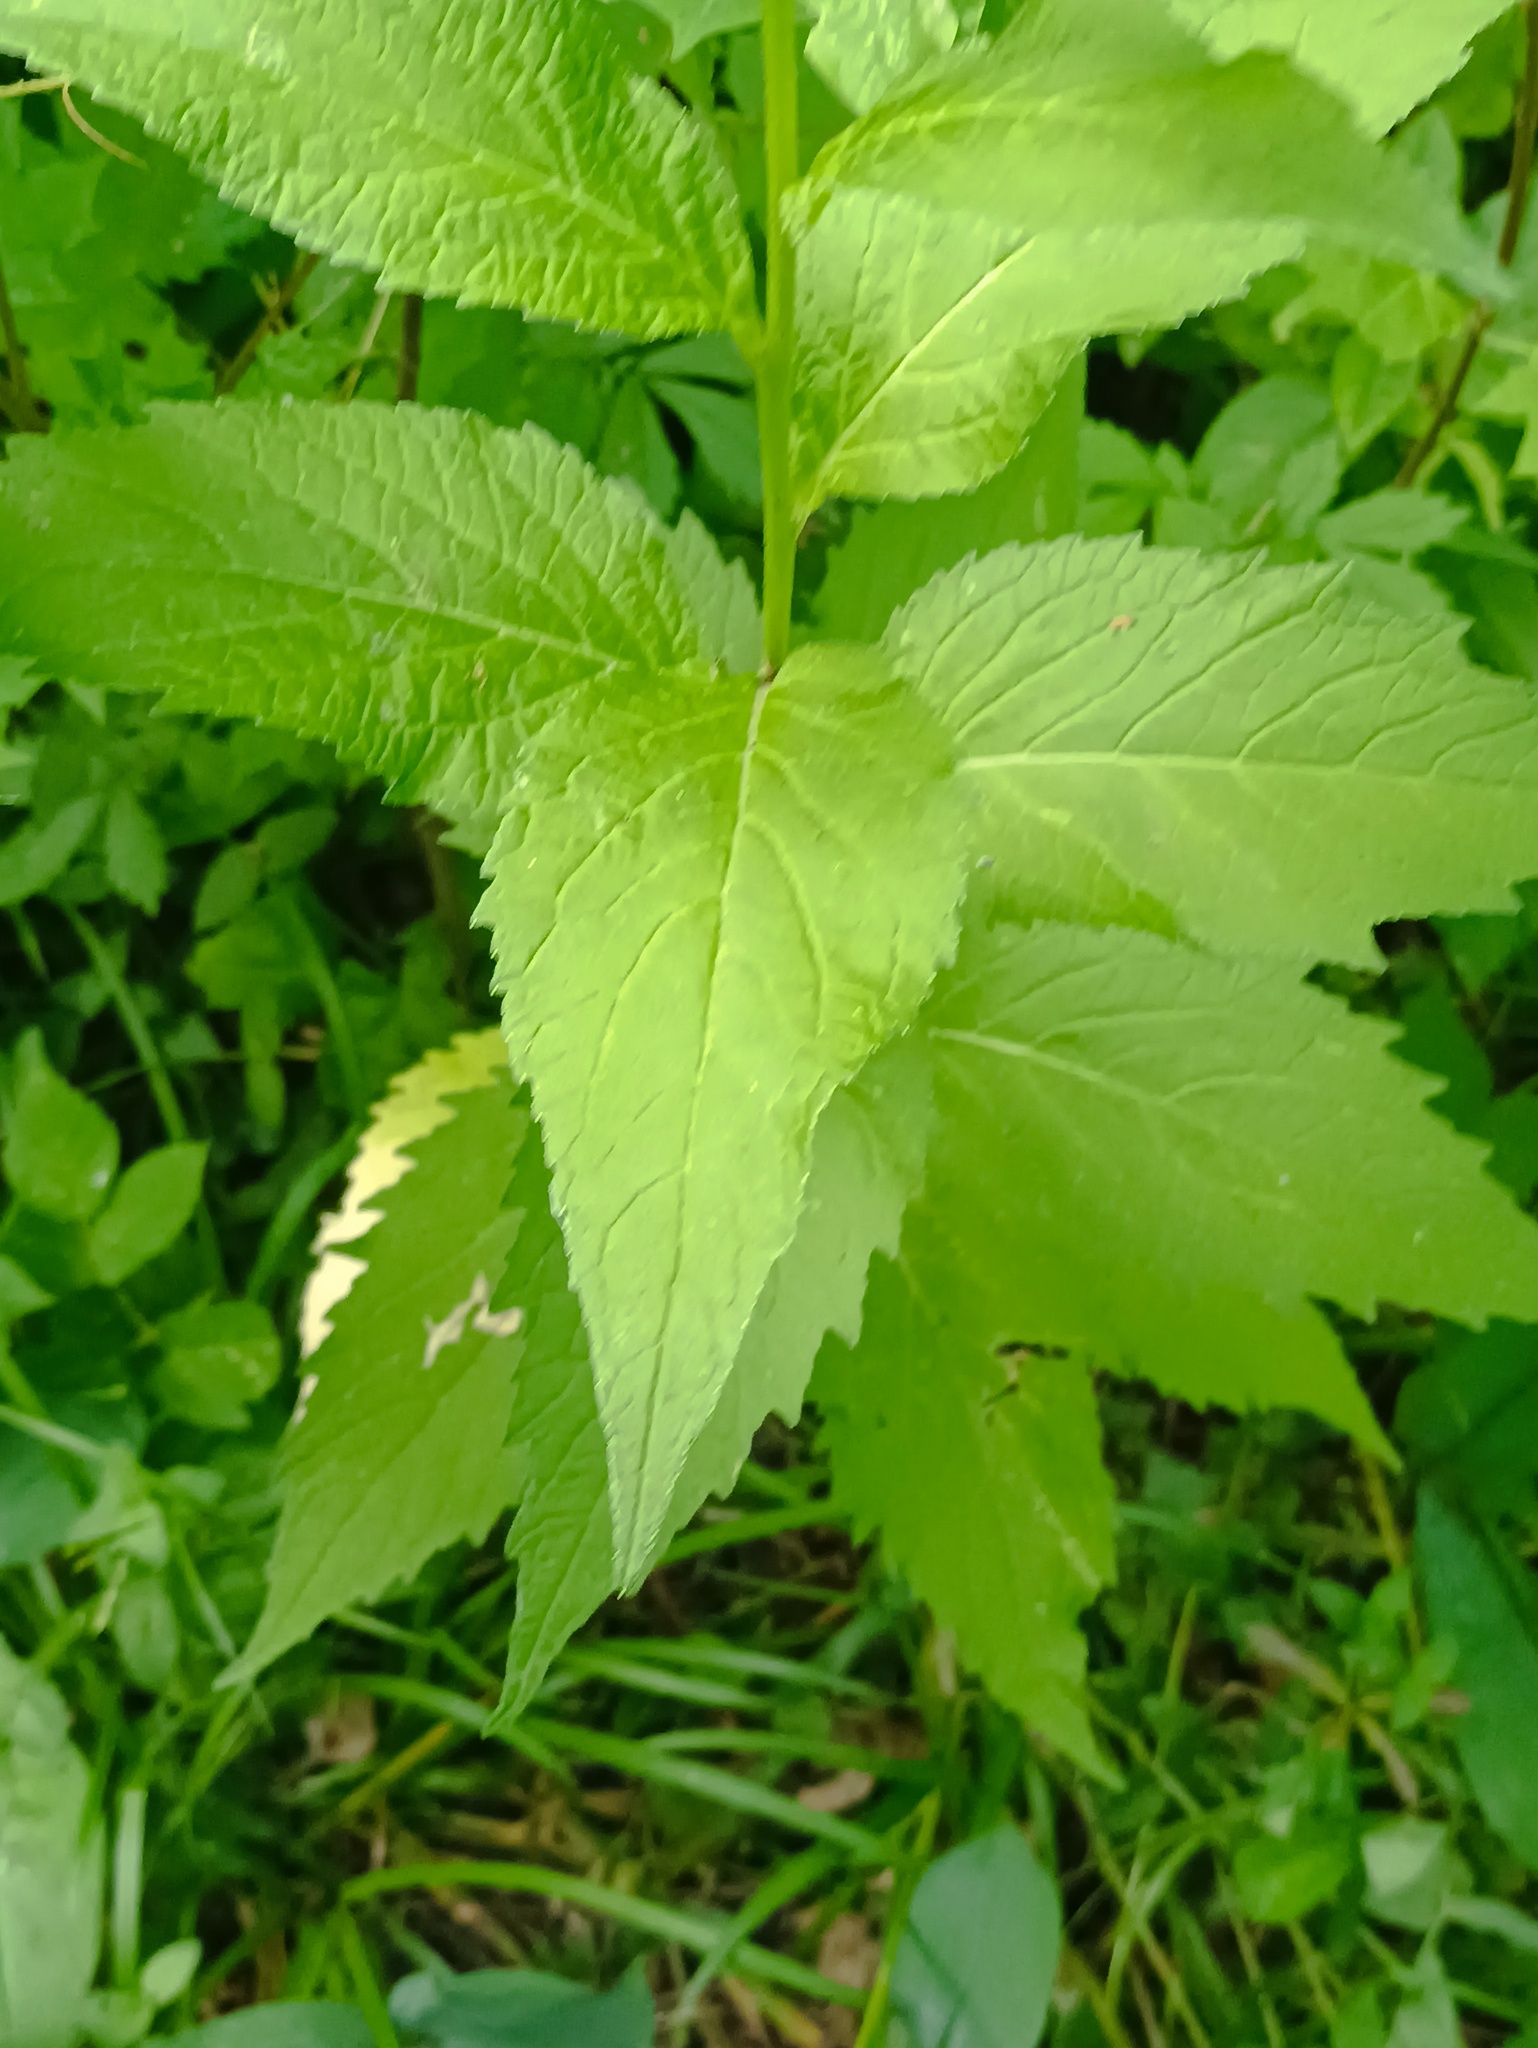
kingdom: Plantae
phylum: Tracheophyta
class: Magnoliopsida
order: Asterales
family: Campanulaceae
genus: Campanula
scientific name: Campanula latifolia
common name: Giant bellflower
